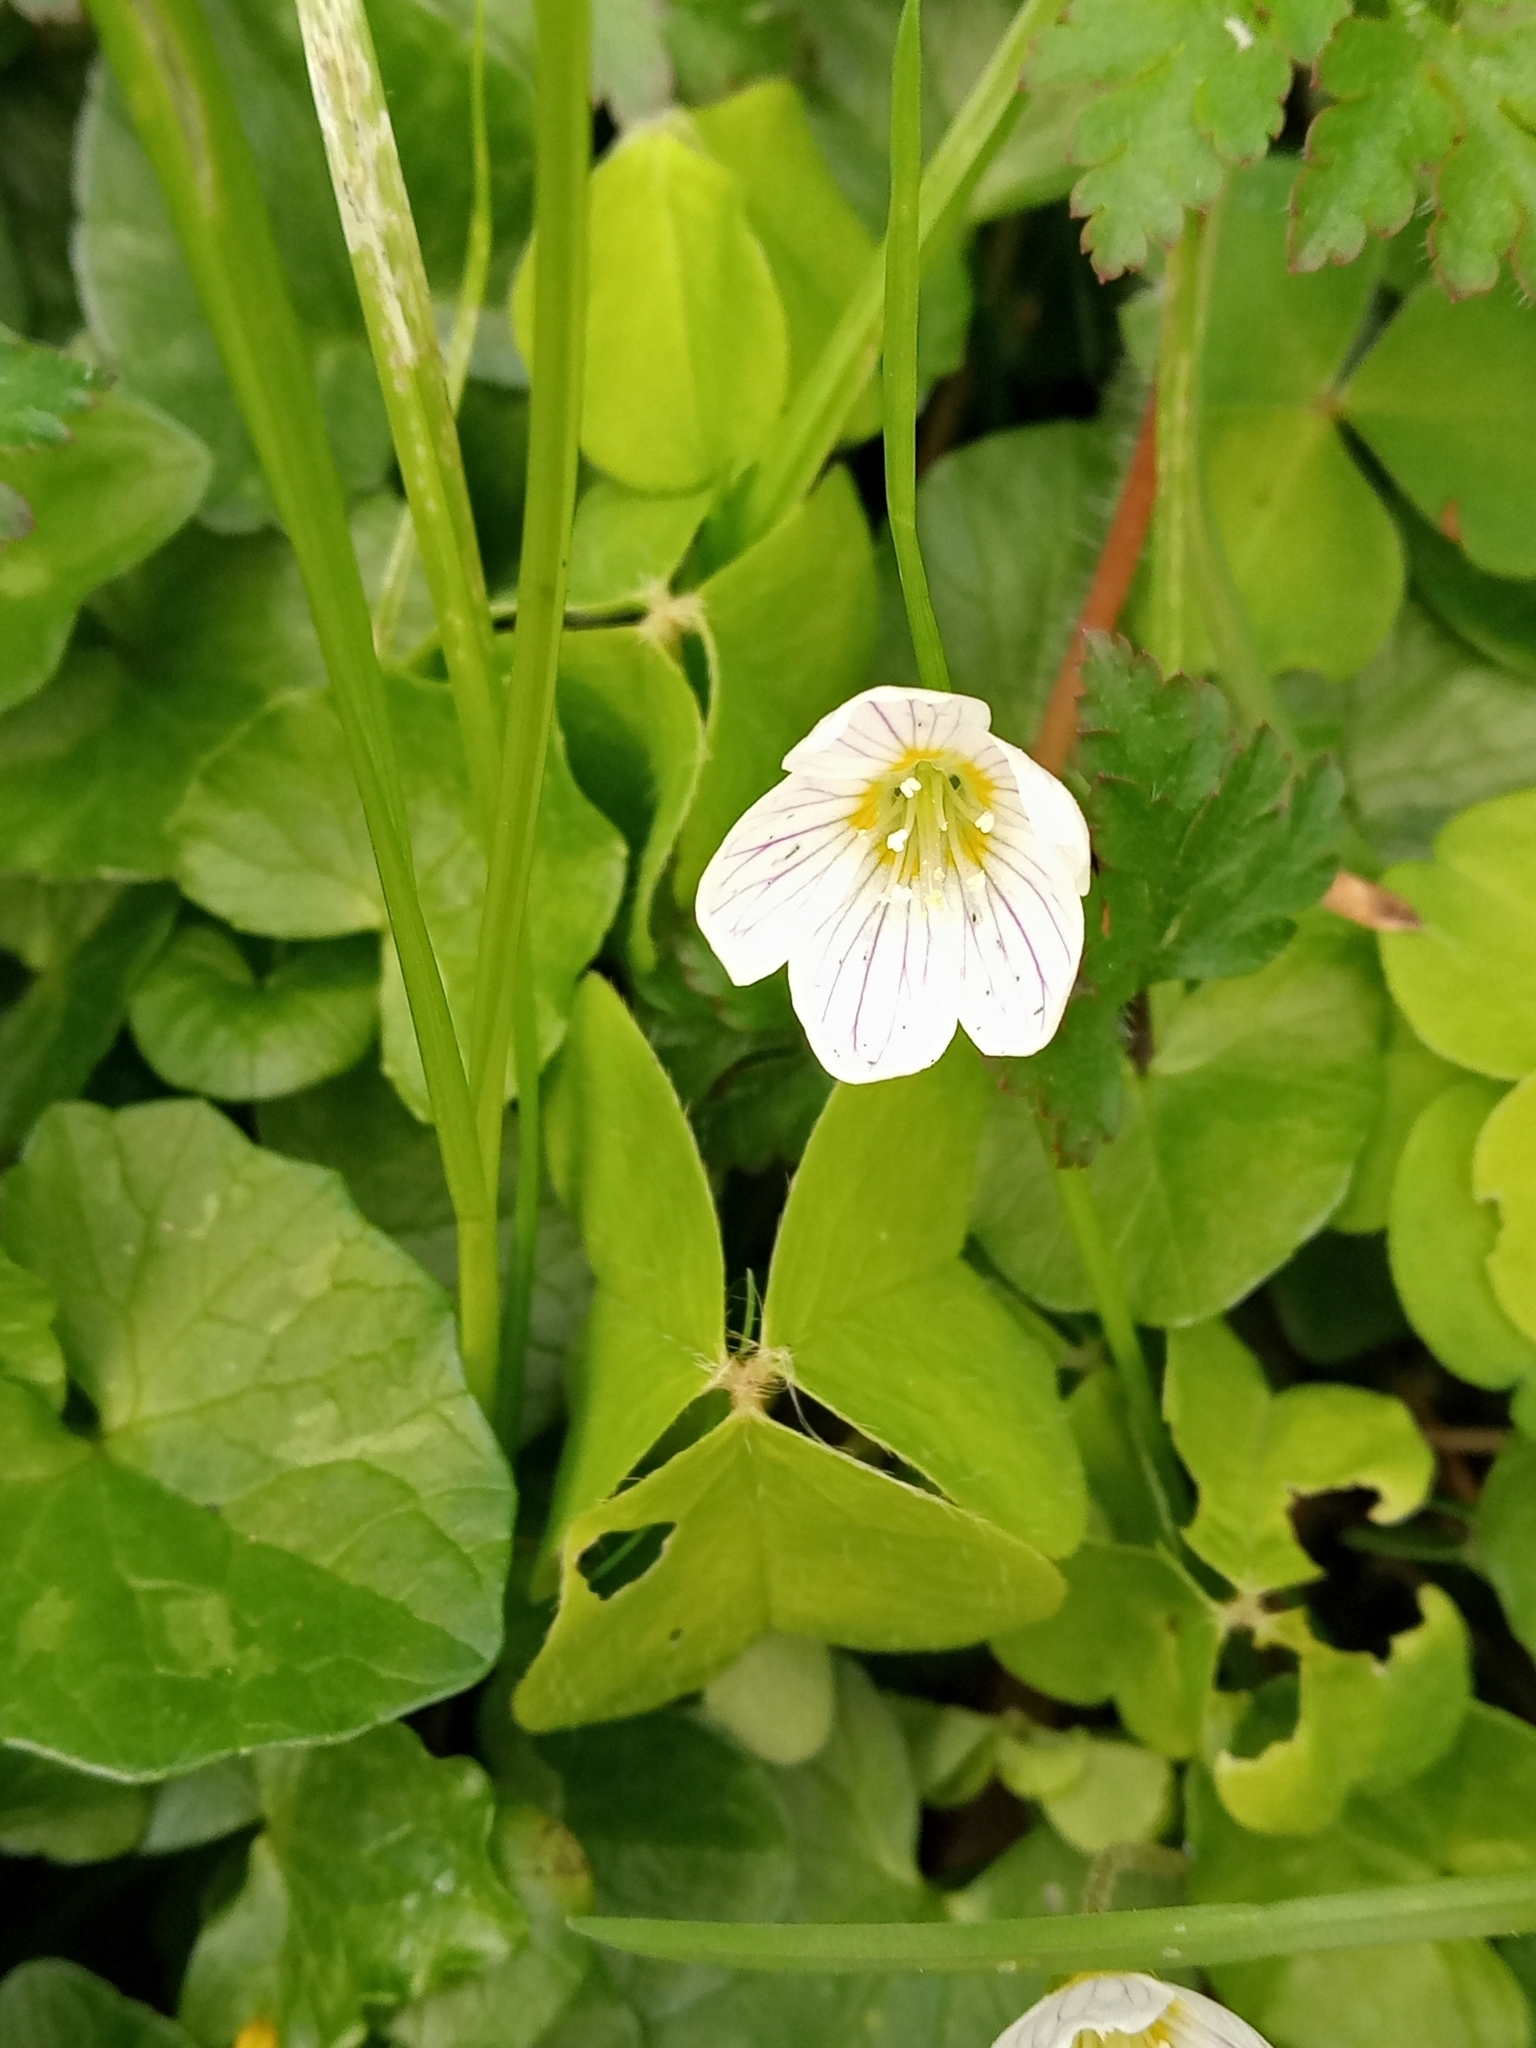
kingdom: Plantae
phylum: Tracheophyta
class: Magnoliopsida
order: Oxalidales
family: Oxalidaceae
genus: Oxalis
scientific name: Oxalis acetosella
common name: Wood-sorrel
